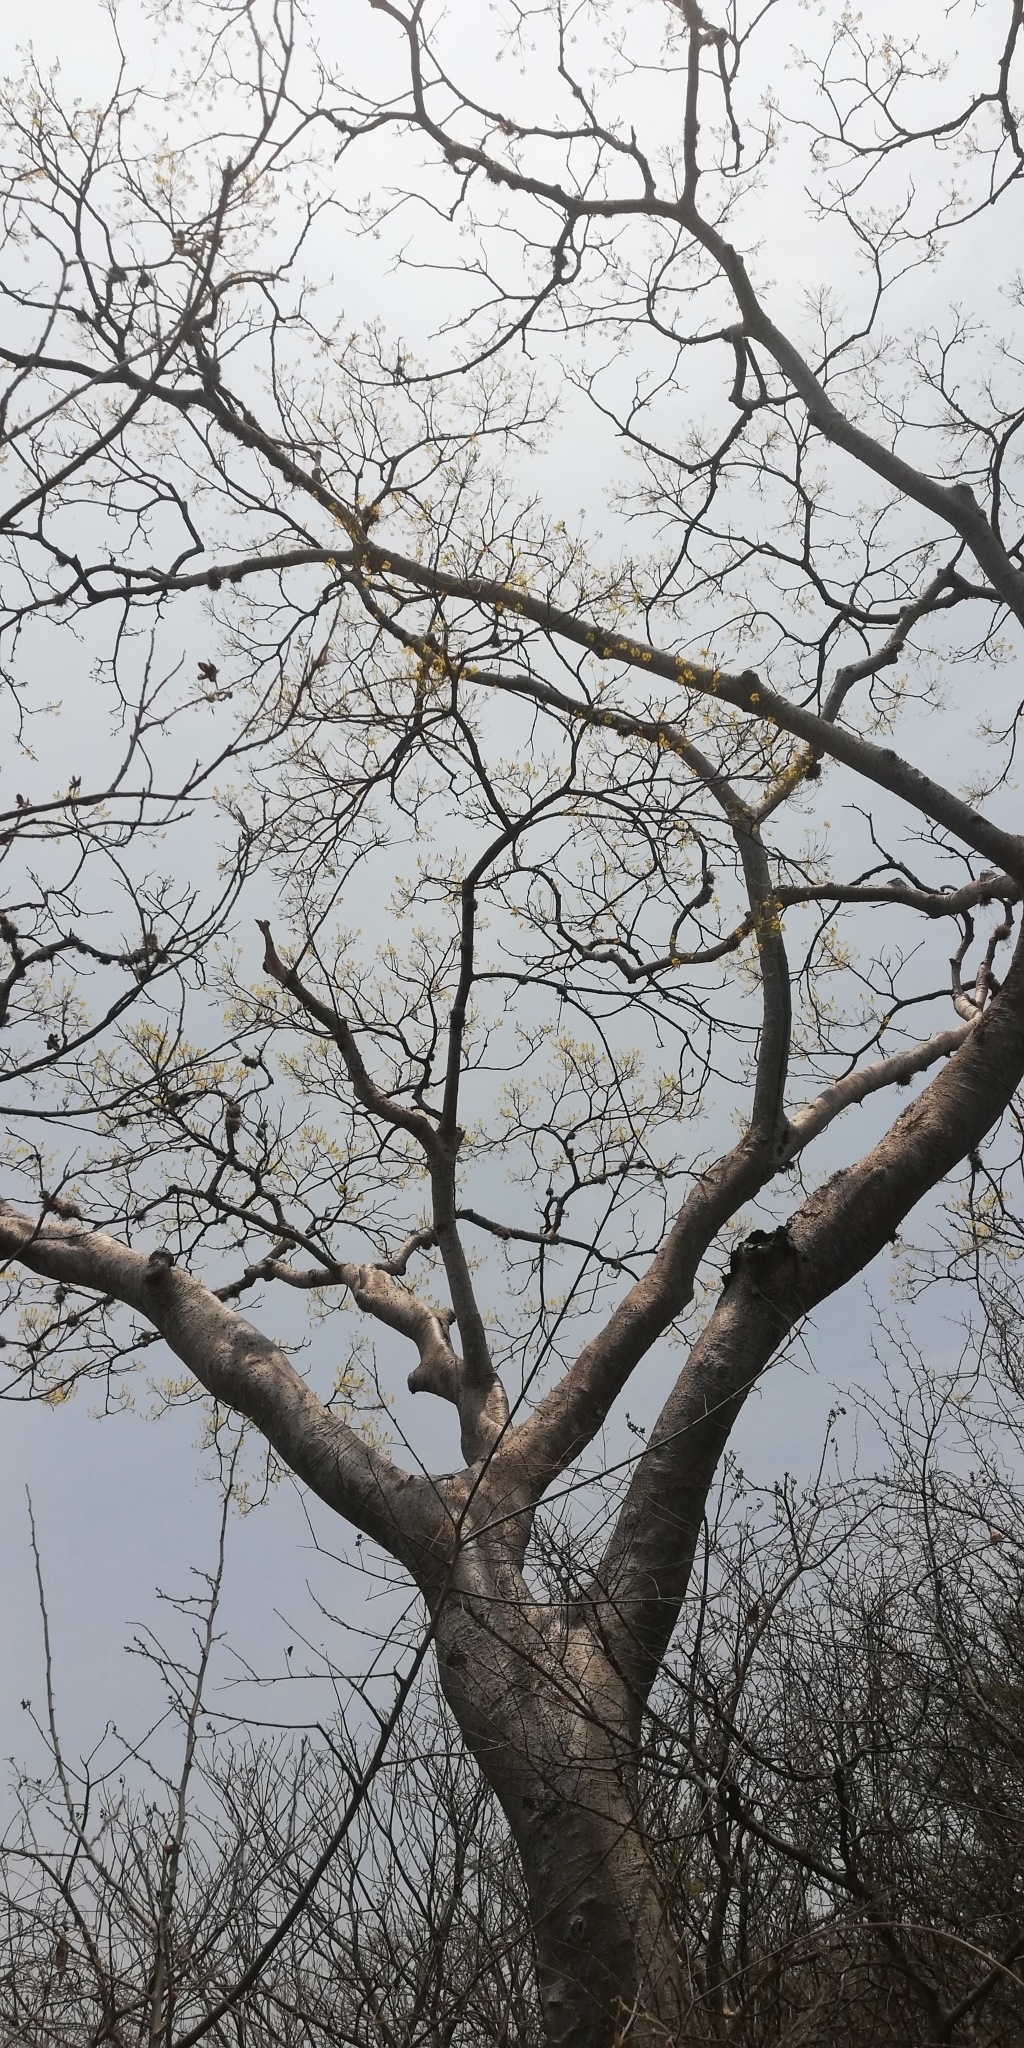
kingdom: Plantae
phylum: Tracheophyta
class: Magnoliopsida
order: Sapindales
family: Burseraceae
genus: Bursera
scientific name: Bursera fagaroides
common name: Elephant tree
